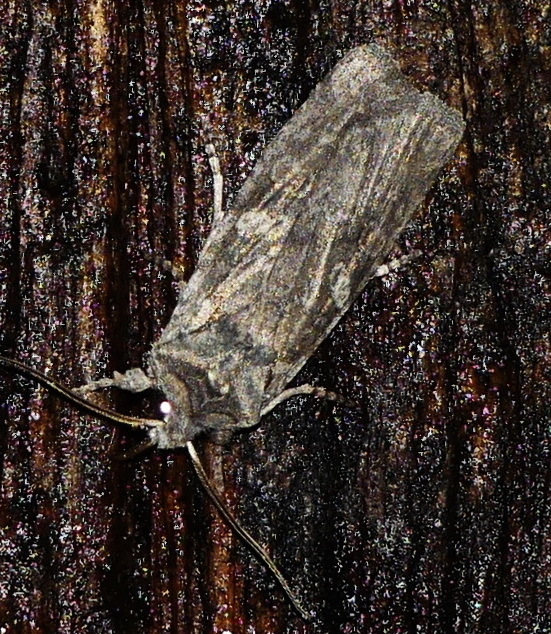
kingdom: Animalia
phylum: Arthropoda
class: Insecta
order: Lepidoptera
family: Noctuidae
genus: Lithophane
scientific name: Lithophane laticinerea
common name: Broad ashen pinion
